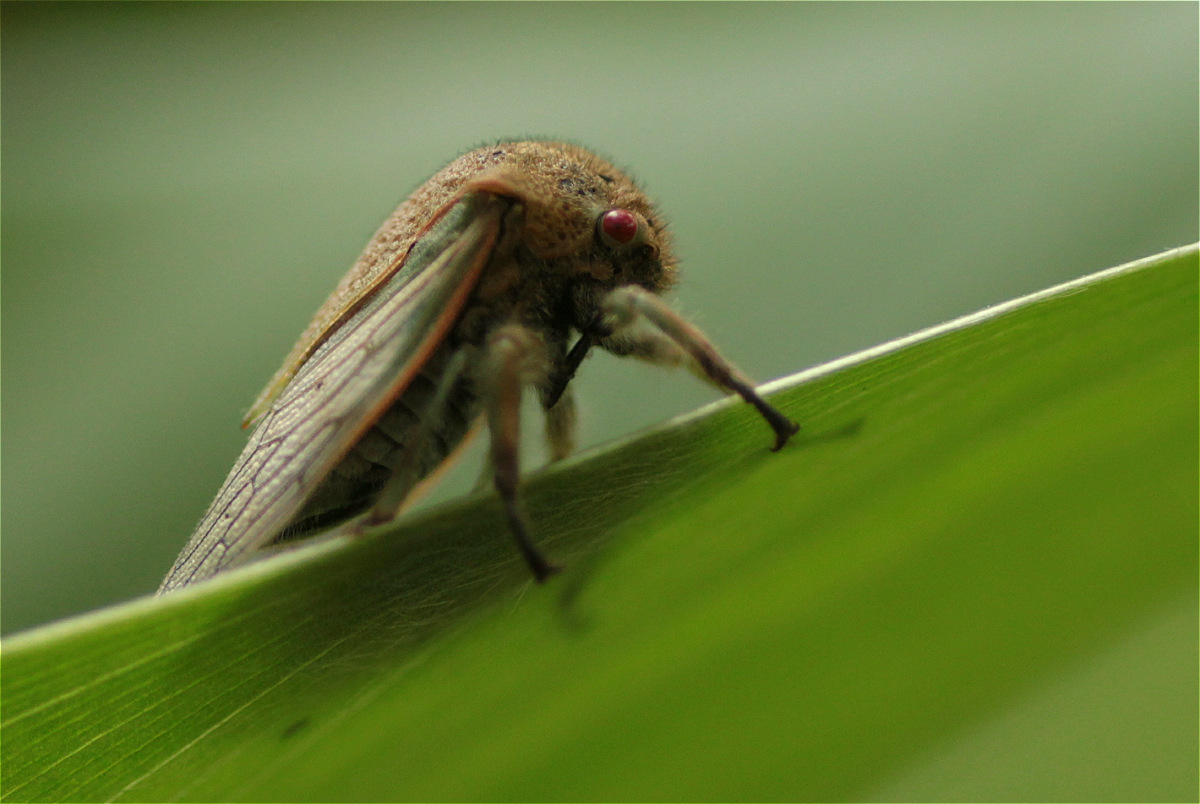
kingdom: Animalia
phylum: Arthropoda
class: Insecta
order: Hemiptera
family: Membracidae
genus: Metcalfiella
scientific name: Metcalfiella jaramillorum
